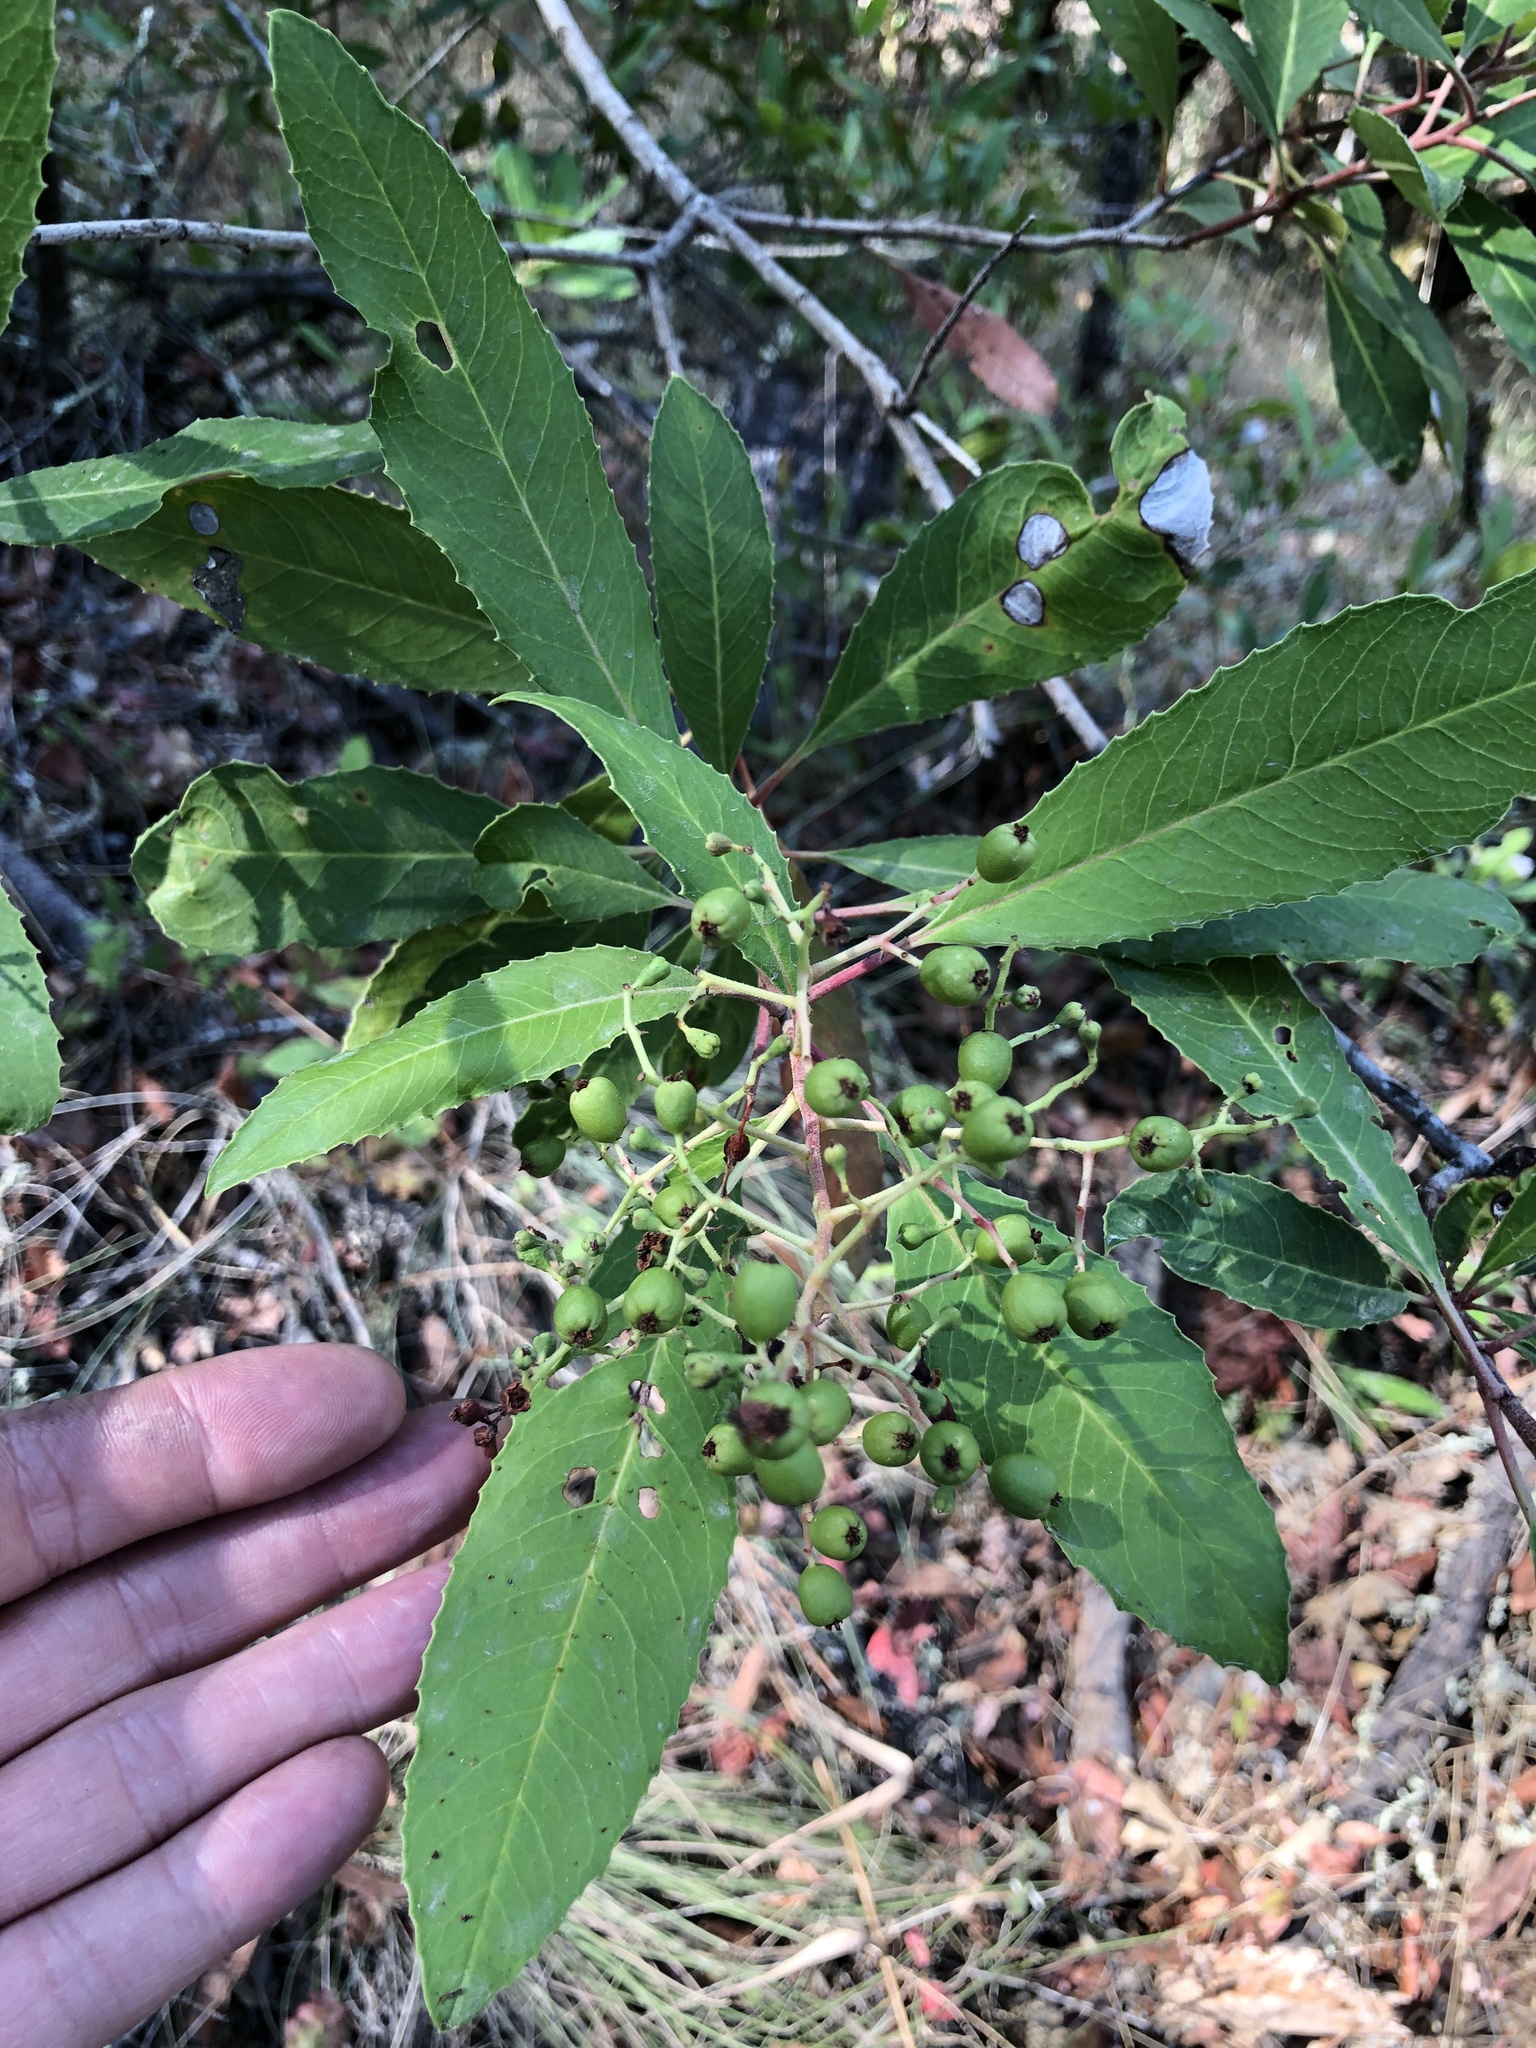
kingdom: Plantae
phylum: Tracheophyta
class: Magnoliopsida
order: Rosales
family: Rosaceae
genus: Heteromeles
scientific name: Heteromeles arbutifolia
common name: California-holly
